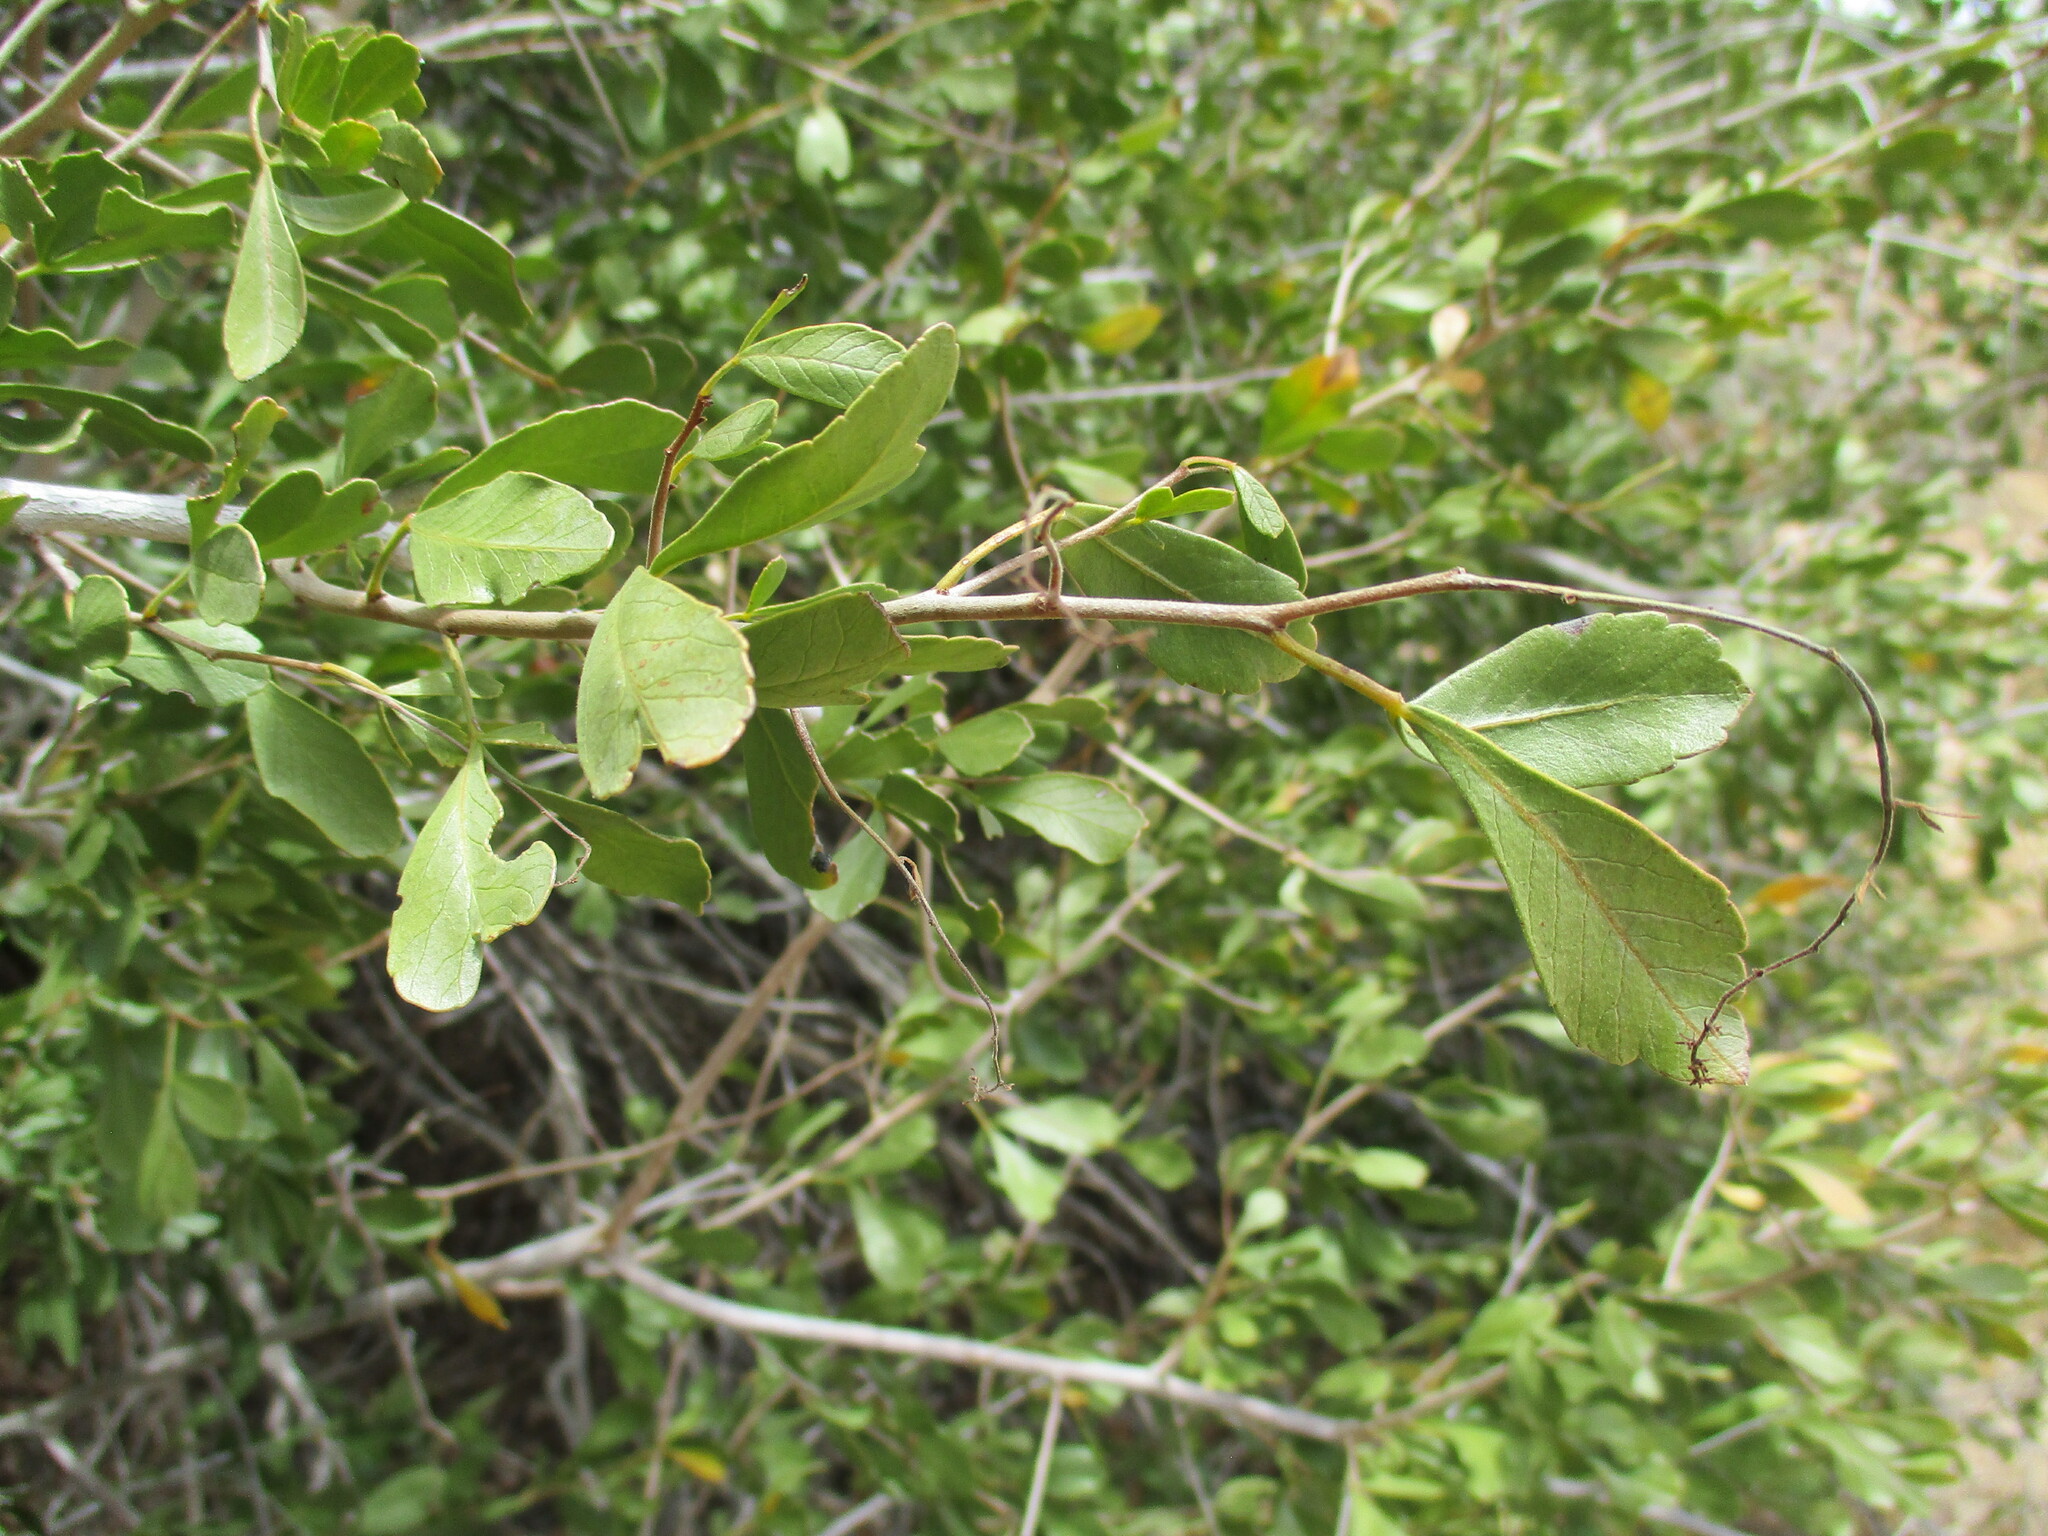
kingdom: Plantae
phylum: Tracheophyta
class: Magnoliopsida
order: Sapindales
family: Anacardiaceae
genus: Searsia
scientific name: Searsia marlothii
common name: Bitter karee
